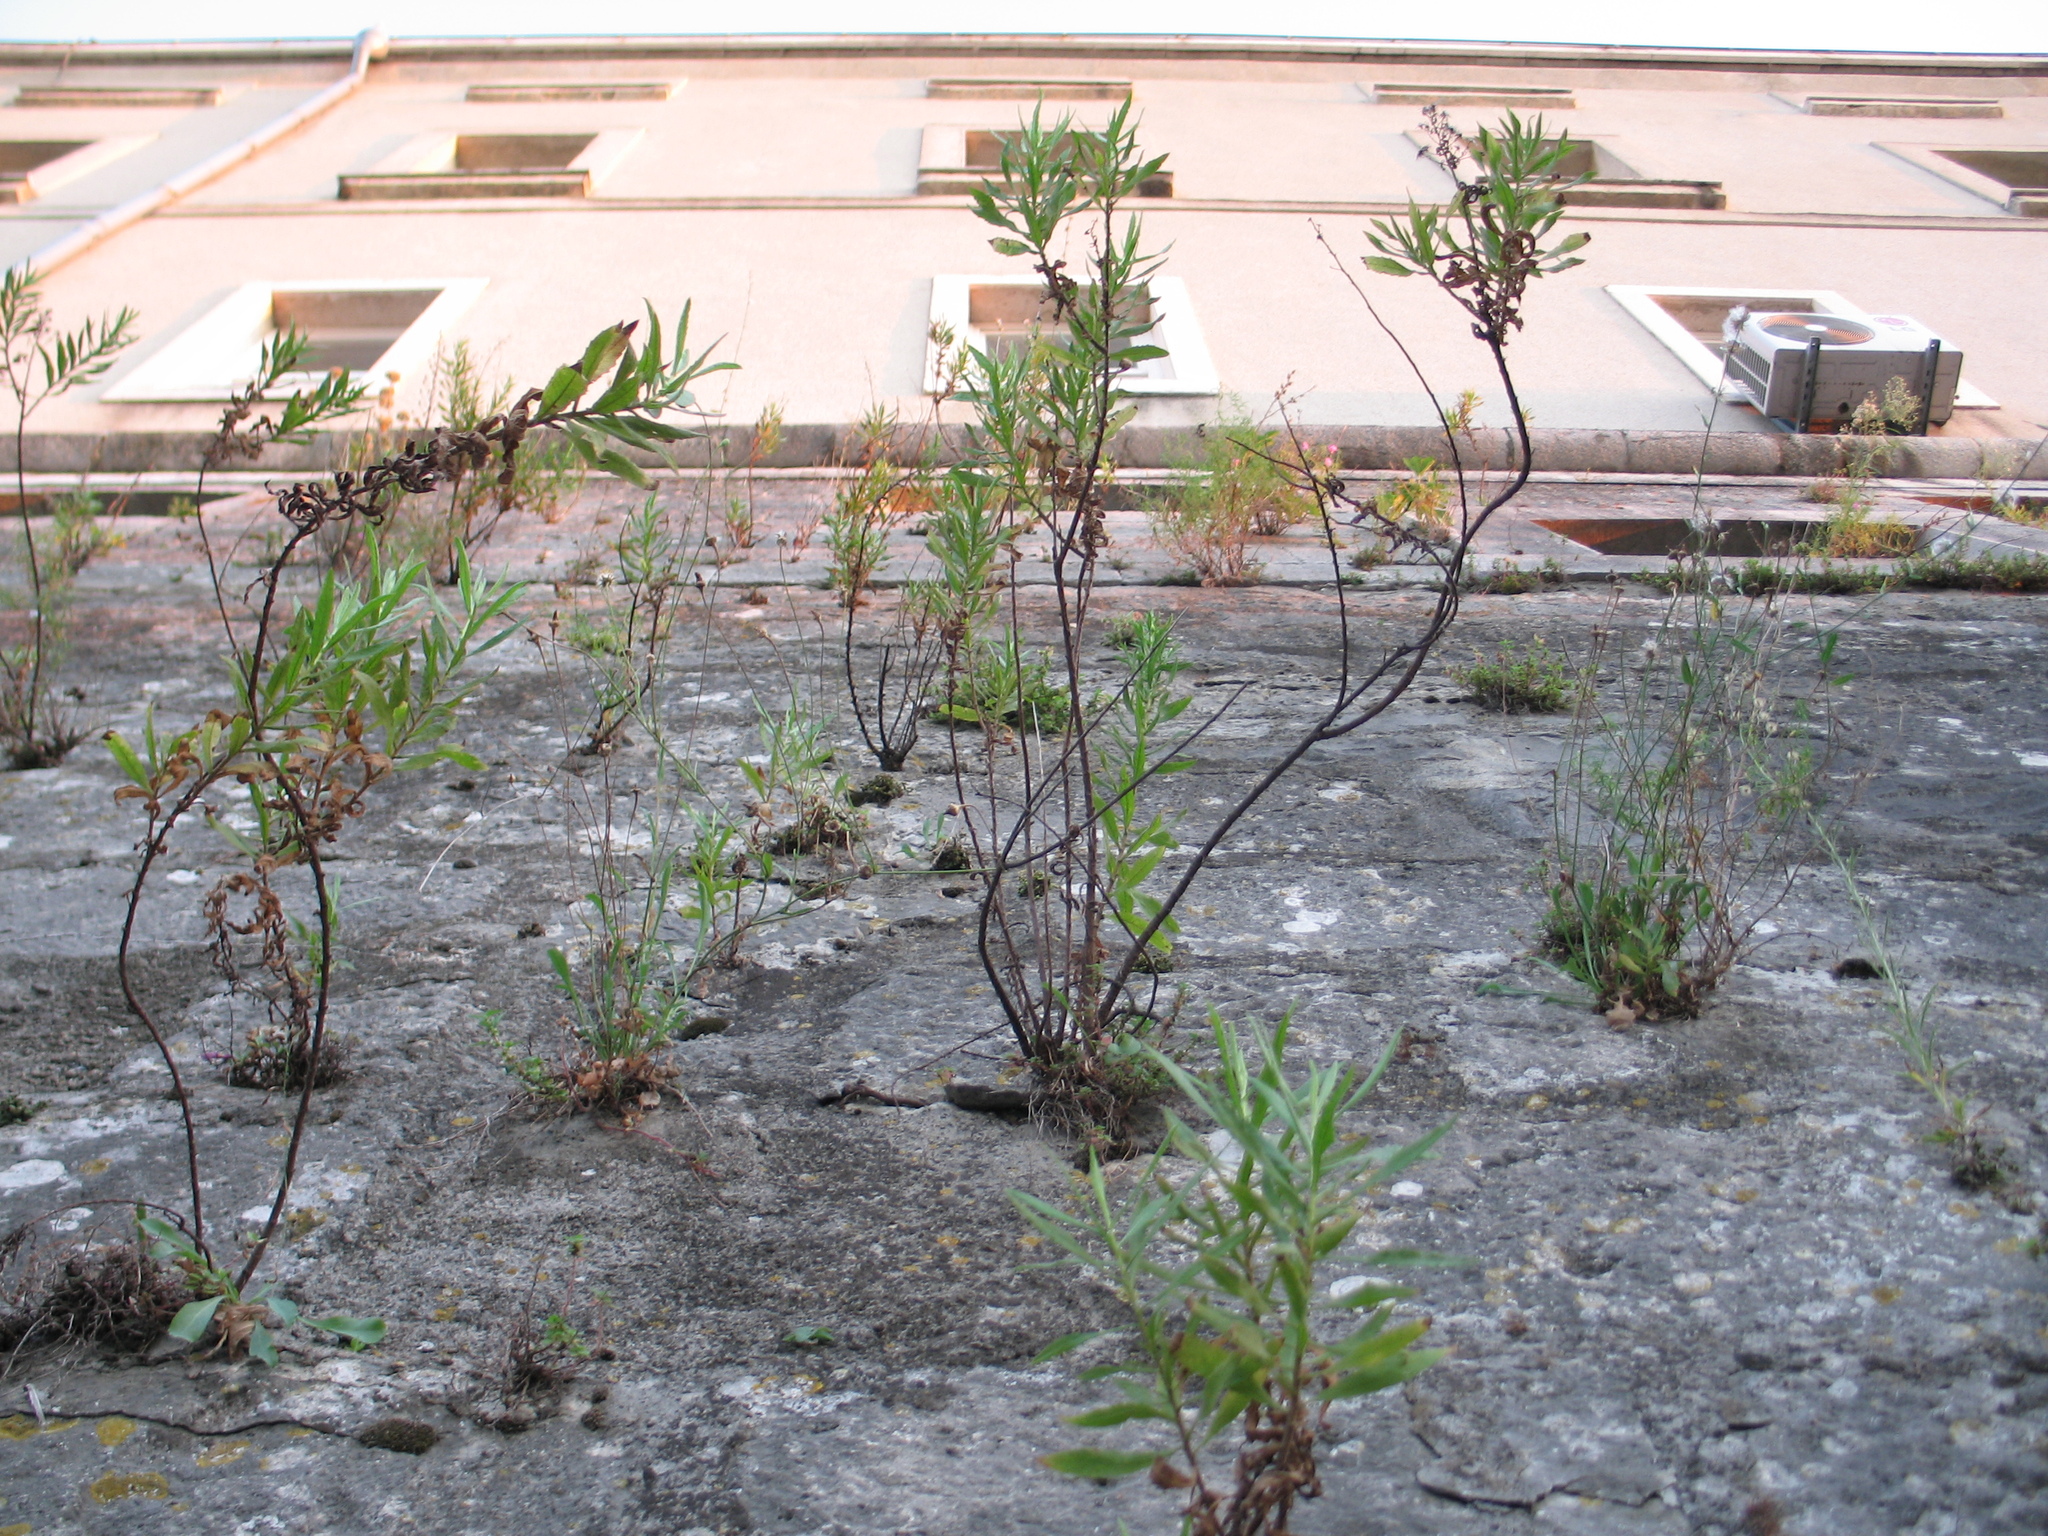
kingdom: Plantae
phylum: Tracheophyta
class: Magnoliopsida
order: Asterales
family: Asteraceae
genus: Dittrichia
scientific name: Dittrichia viscosa
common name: Woody fleabane
